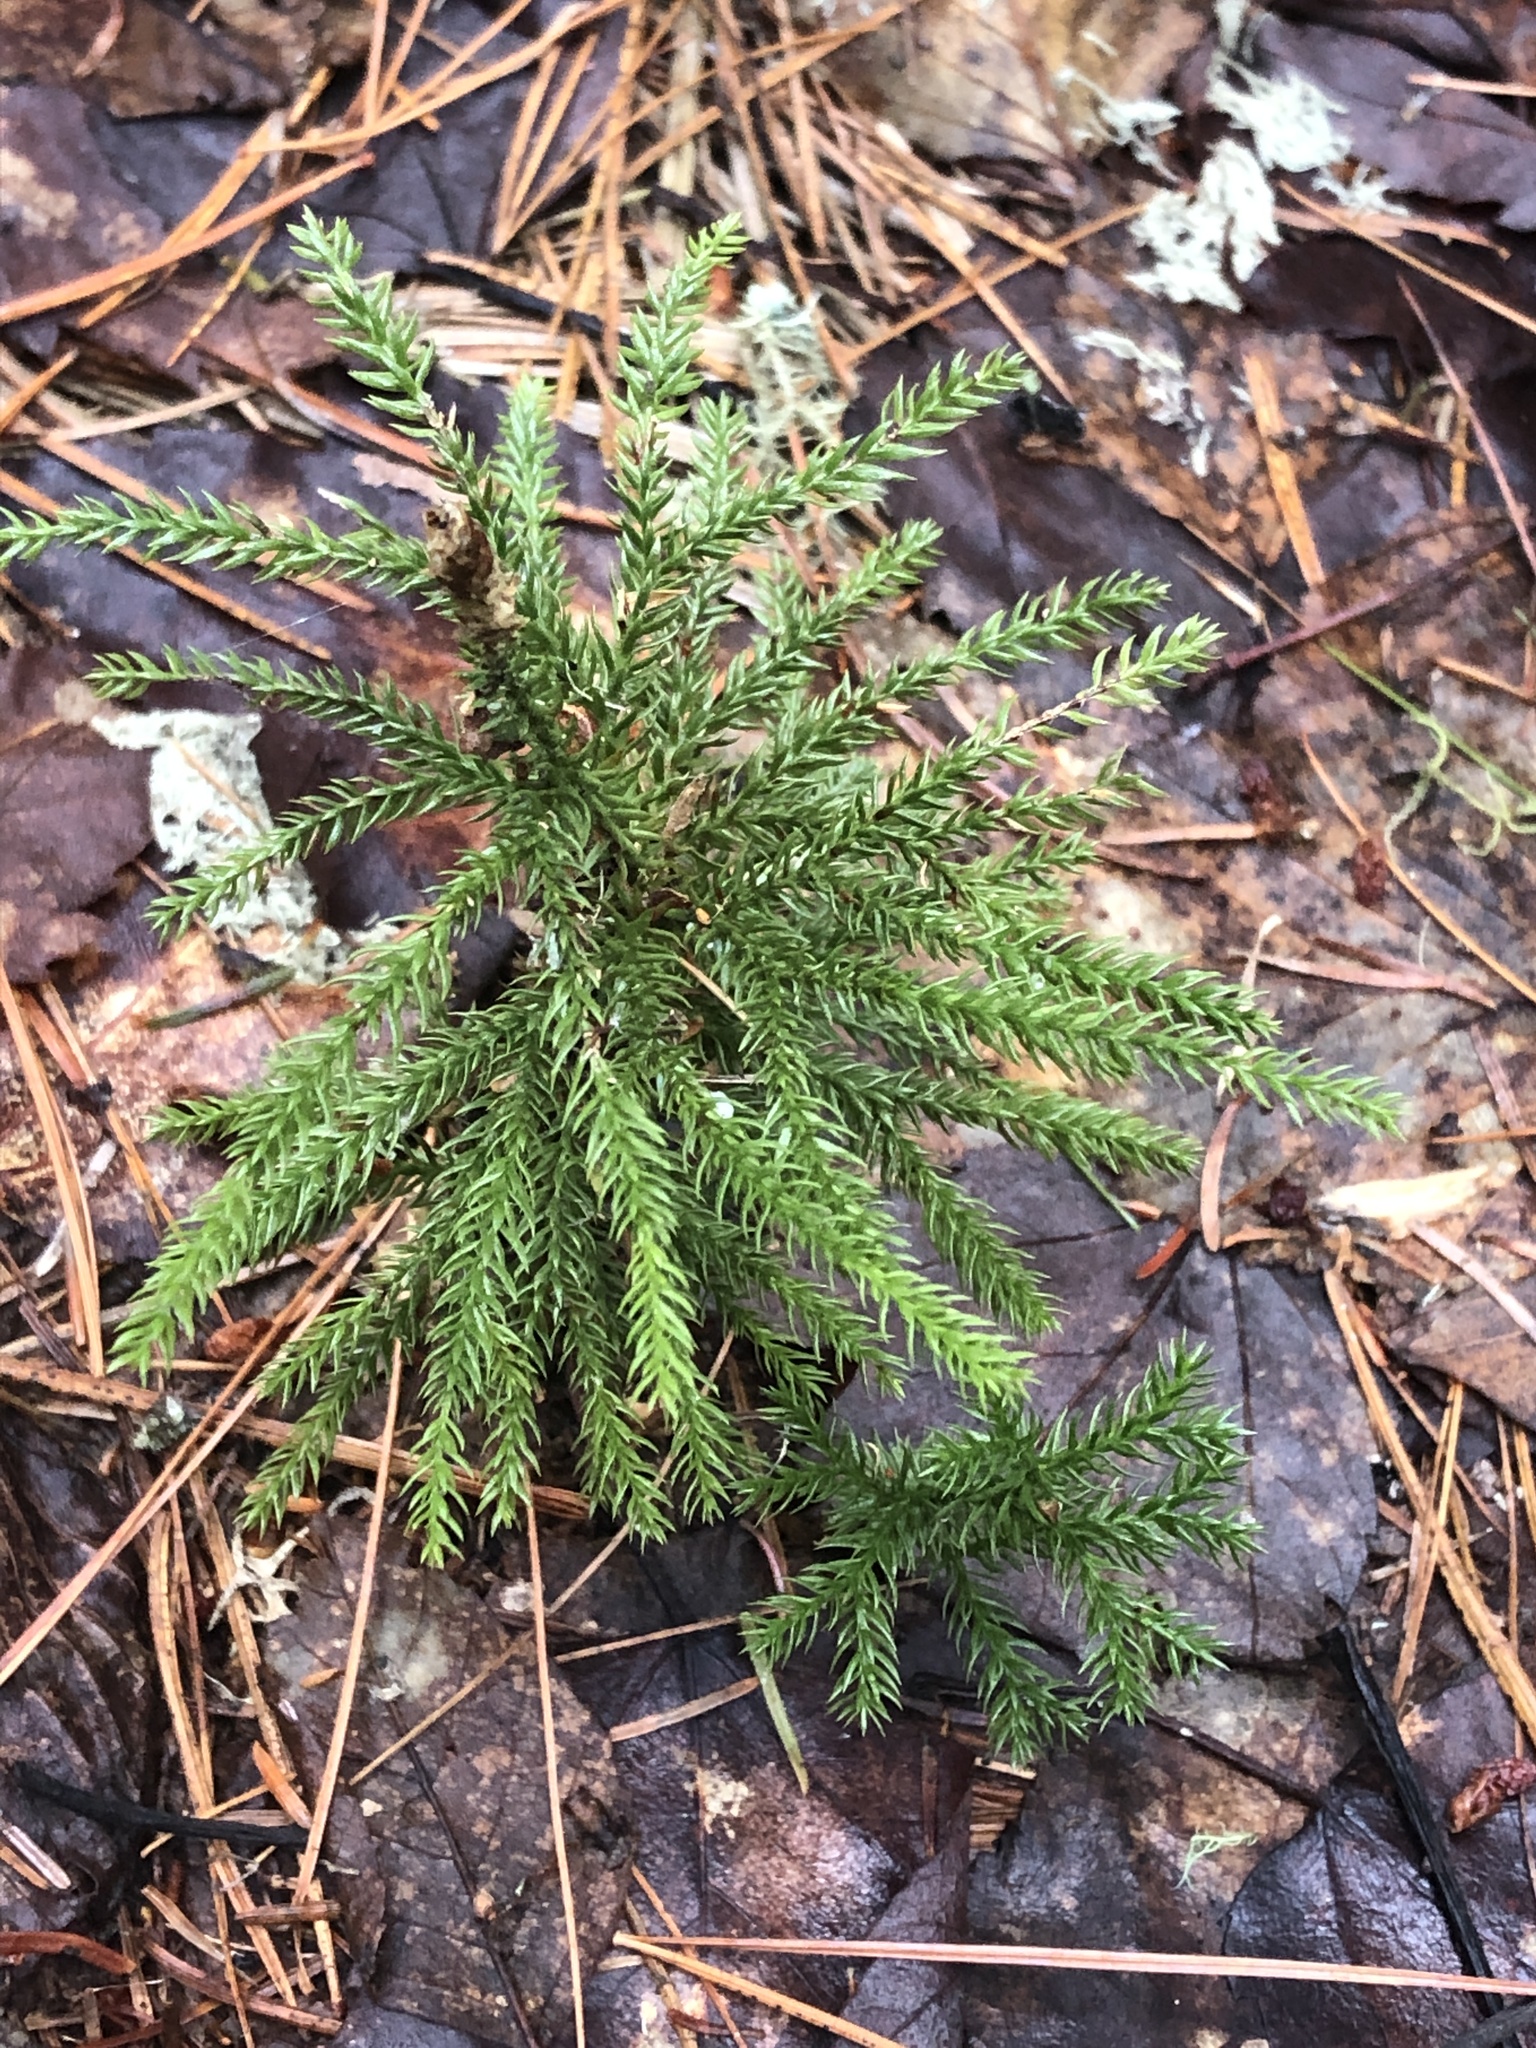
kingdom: Plantae
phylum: Tracheophyta
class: Lycopodiopsida
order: Lycopodiales
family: Lycopodiaceae
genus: Dendrolycopodium
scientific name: Dendrolycopodium dendroideum
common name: Northern tree-clubmoss
